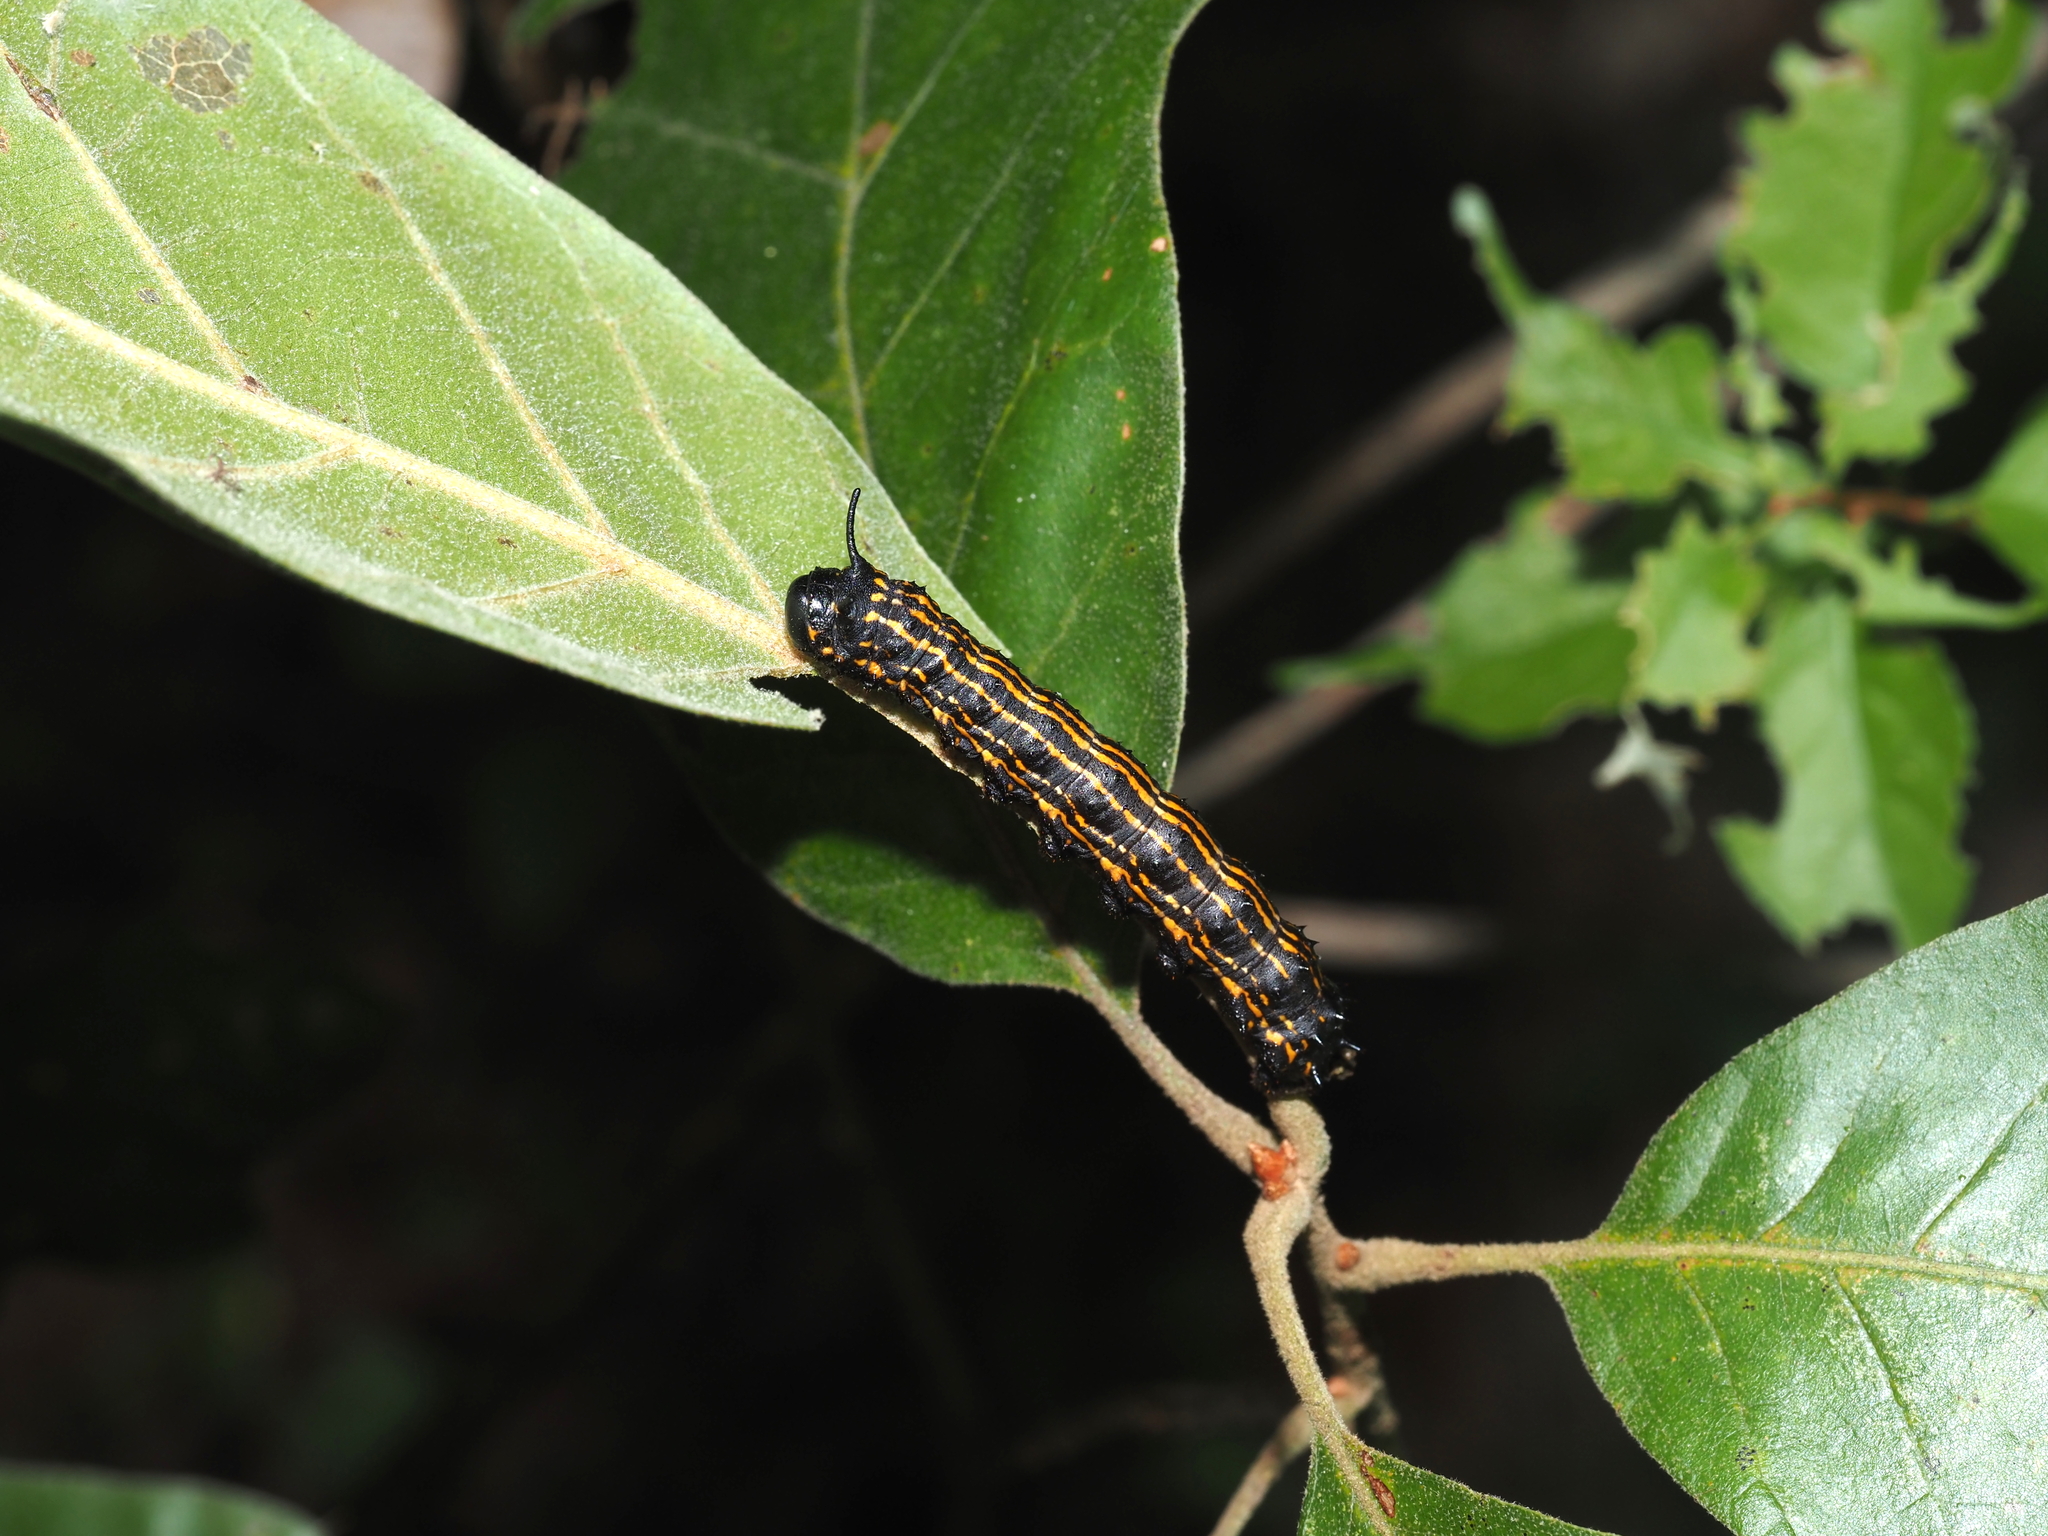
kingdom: Animalia
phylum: Arthropoda
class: Insecta
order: Lepidoptera
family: Saturniidae
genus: Anisota
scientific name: Anisota senatoria
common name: Orange-striped oakworm moth
